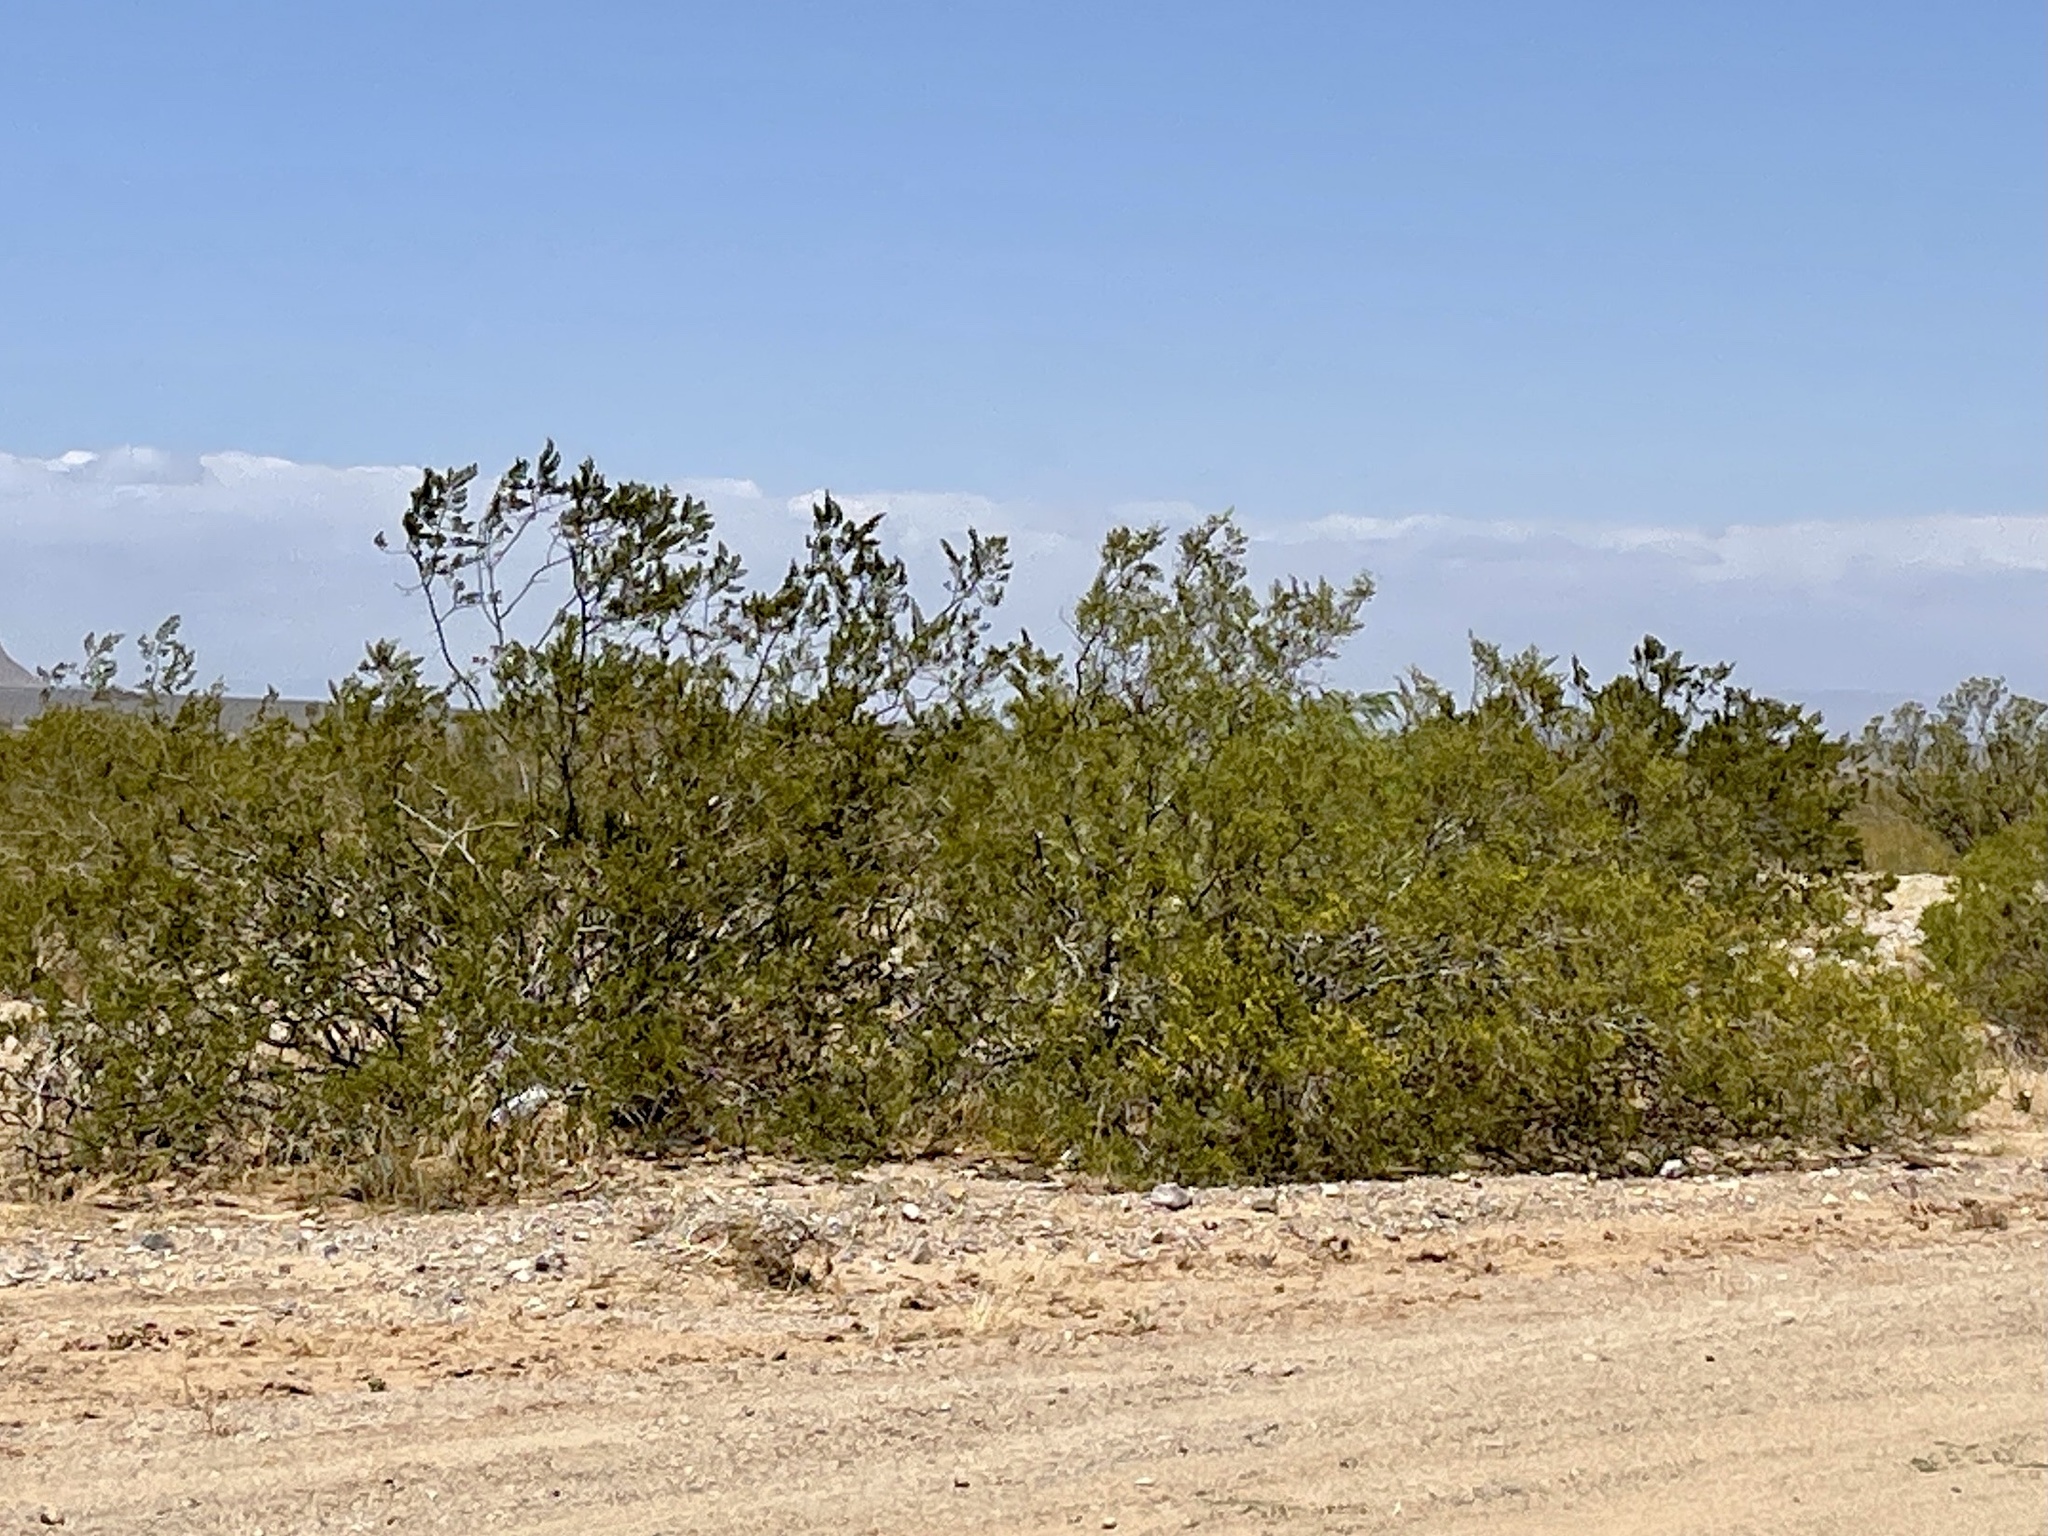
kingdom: Plantae
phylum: Tracheophyta
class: Magnoliopsida
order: Zygophyllales
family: Zygophyllaceae
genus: Larrea
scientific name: Larrea tridentata
